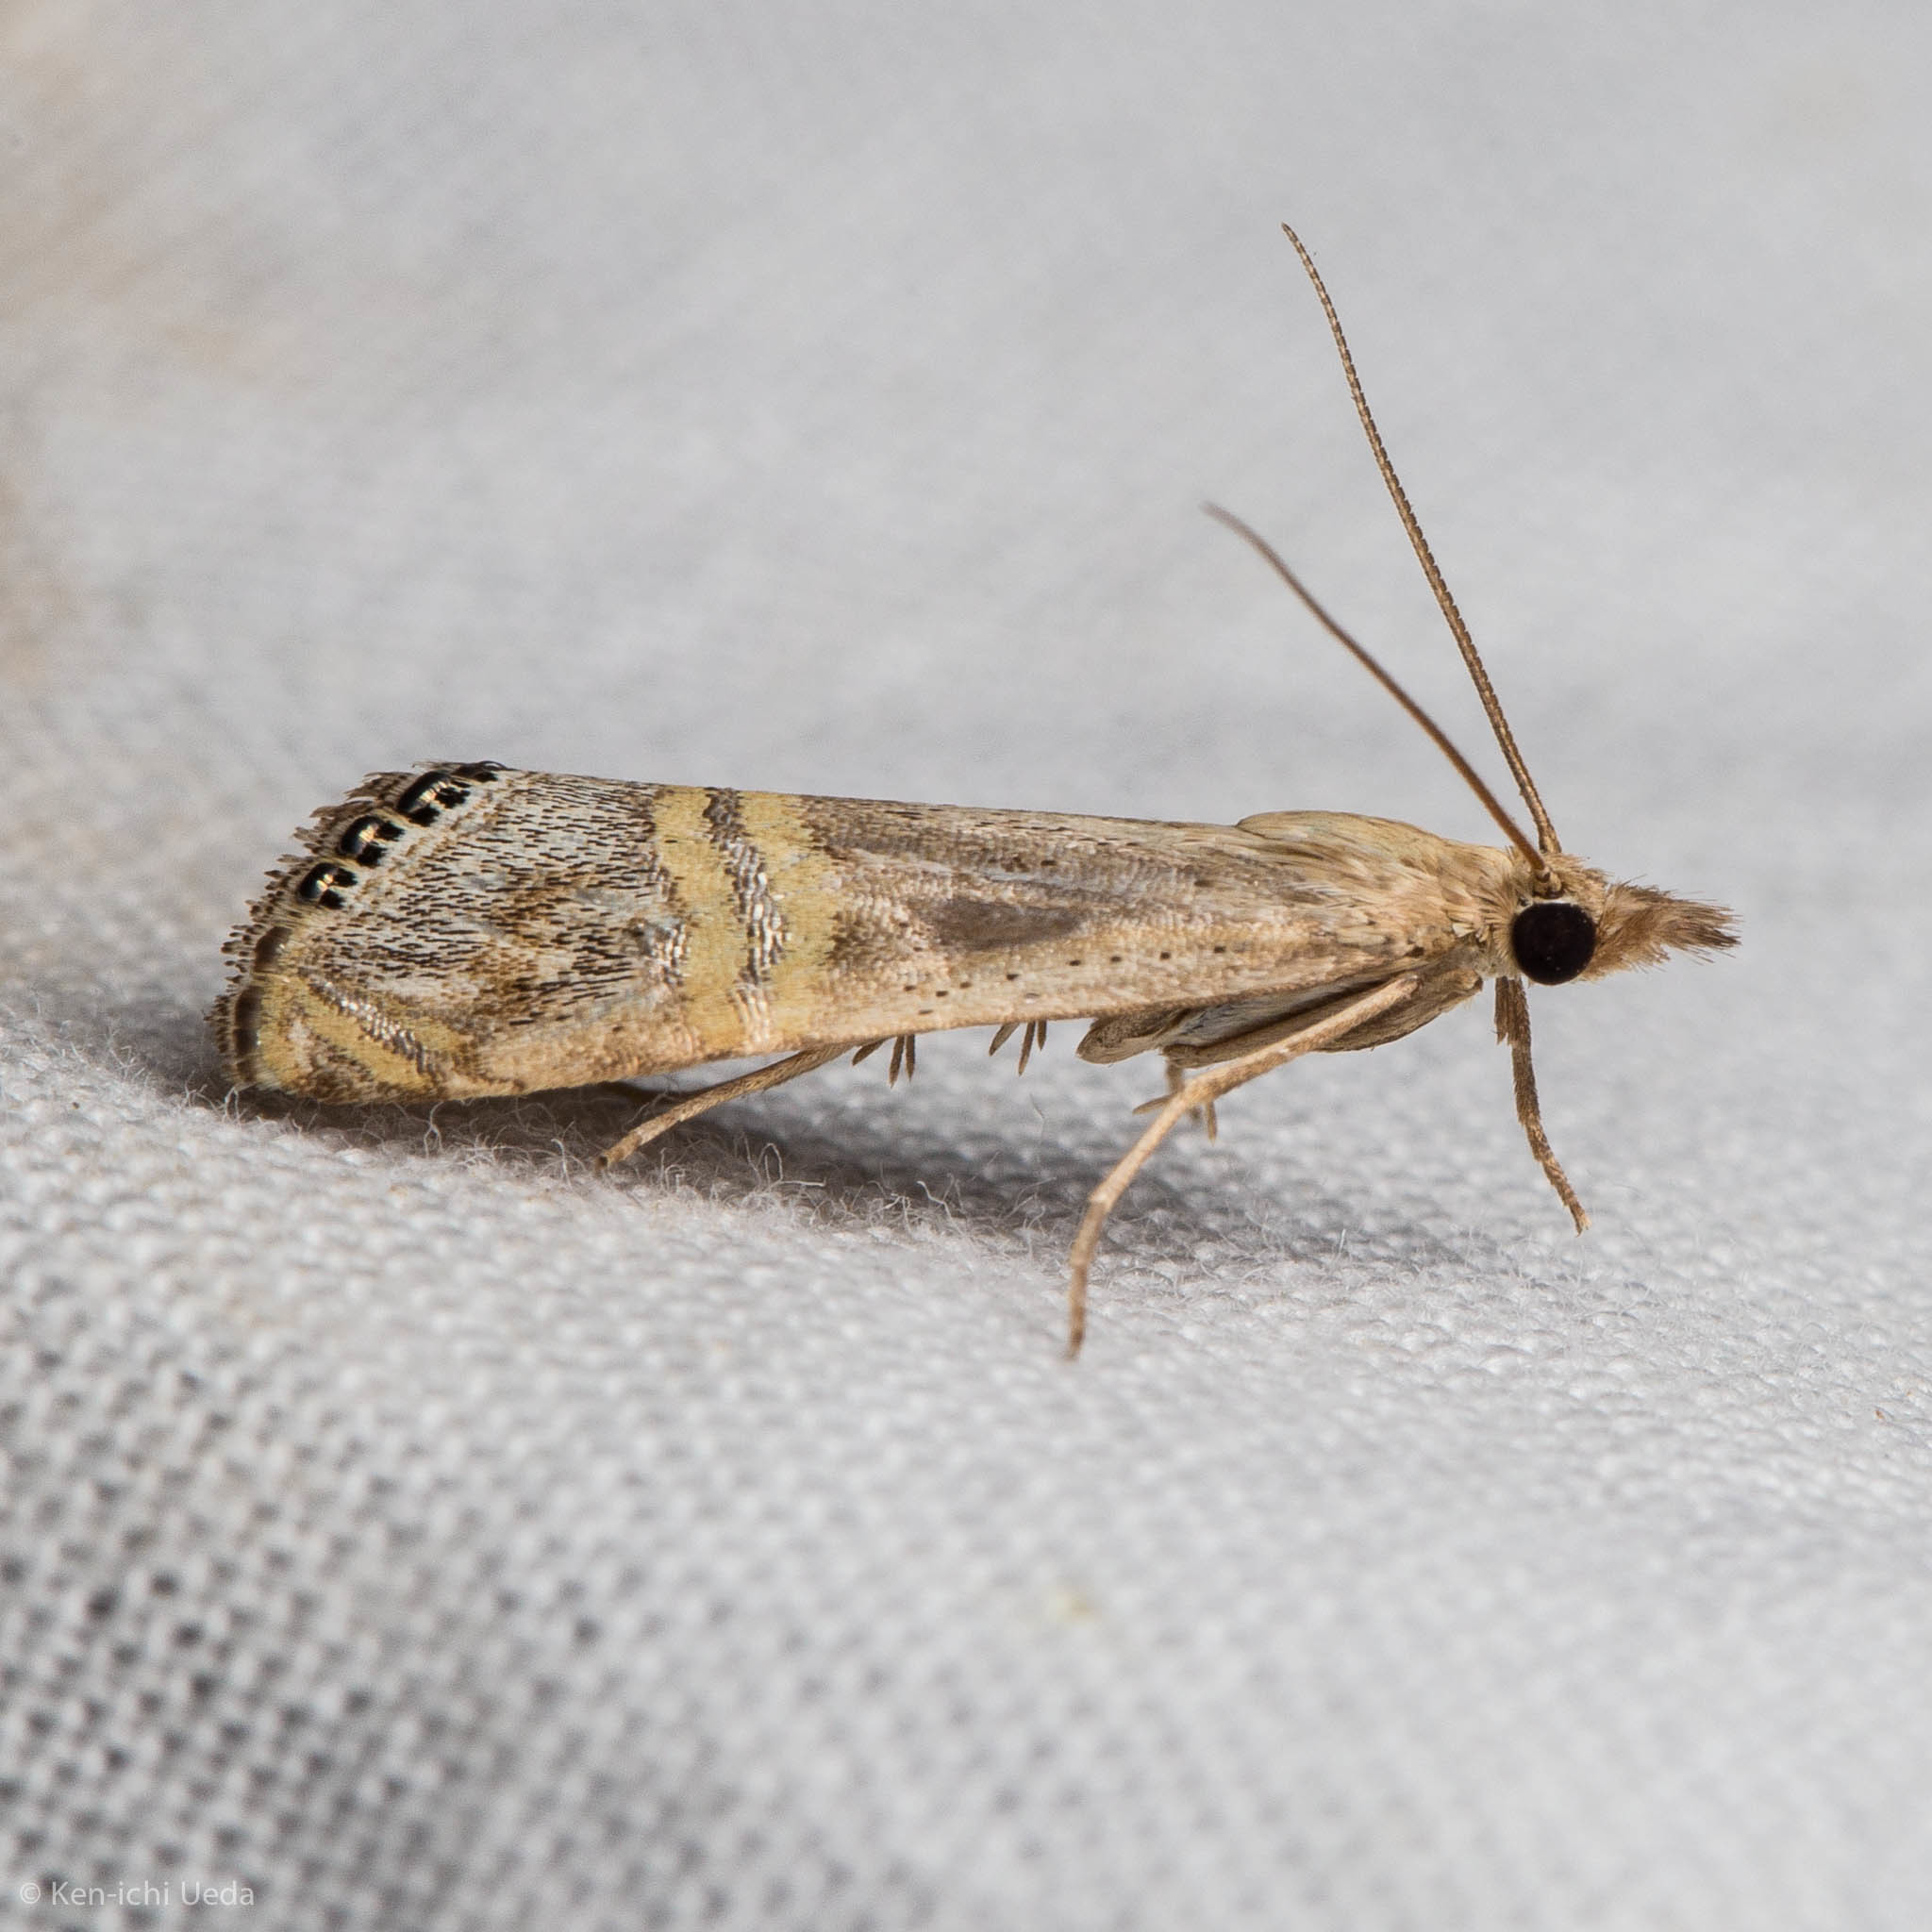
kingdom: Animalia
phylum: Arthropoda
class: Insecta
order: Lepidoptera
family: Crambidae
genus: Euchromius
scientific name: Euchromius ocellea
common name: Necklace veneer moth
